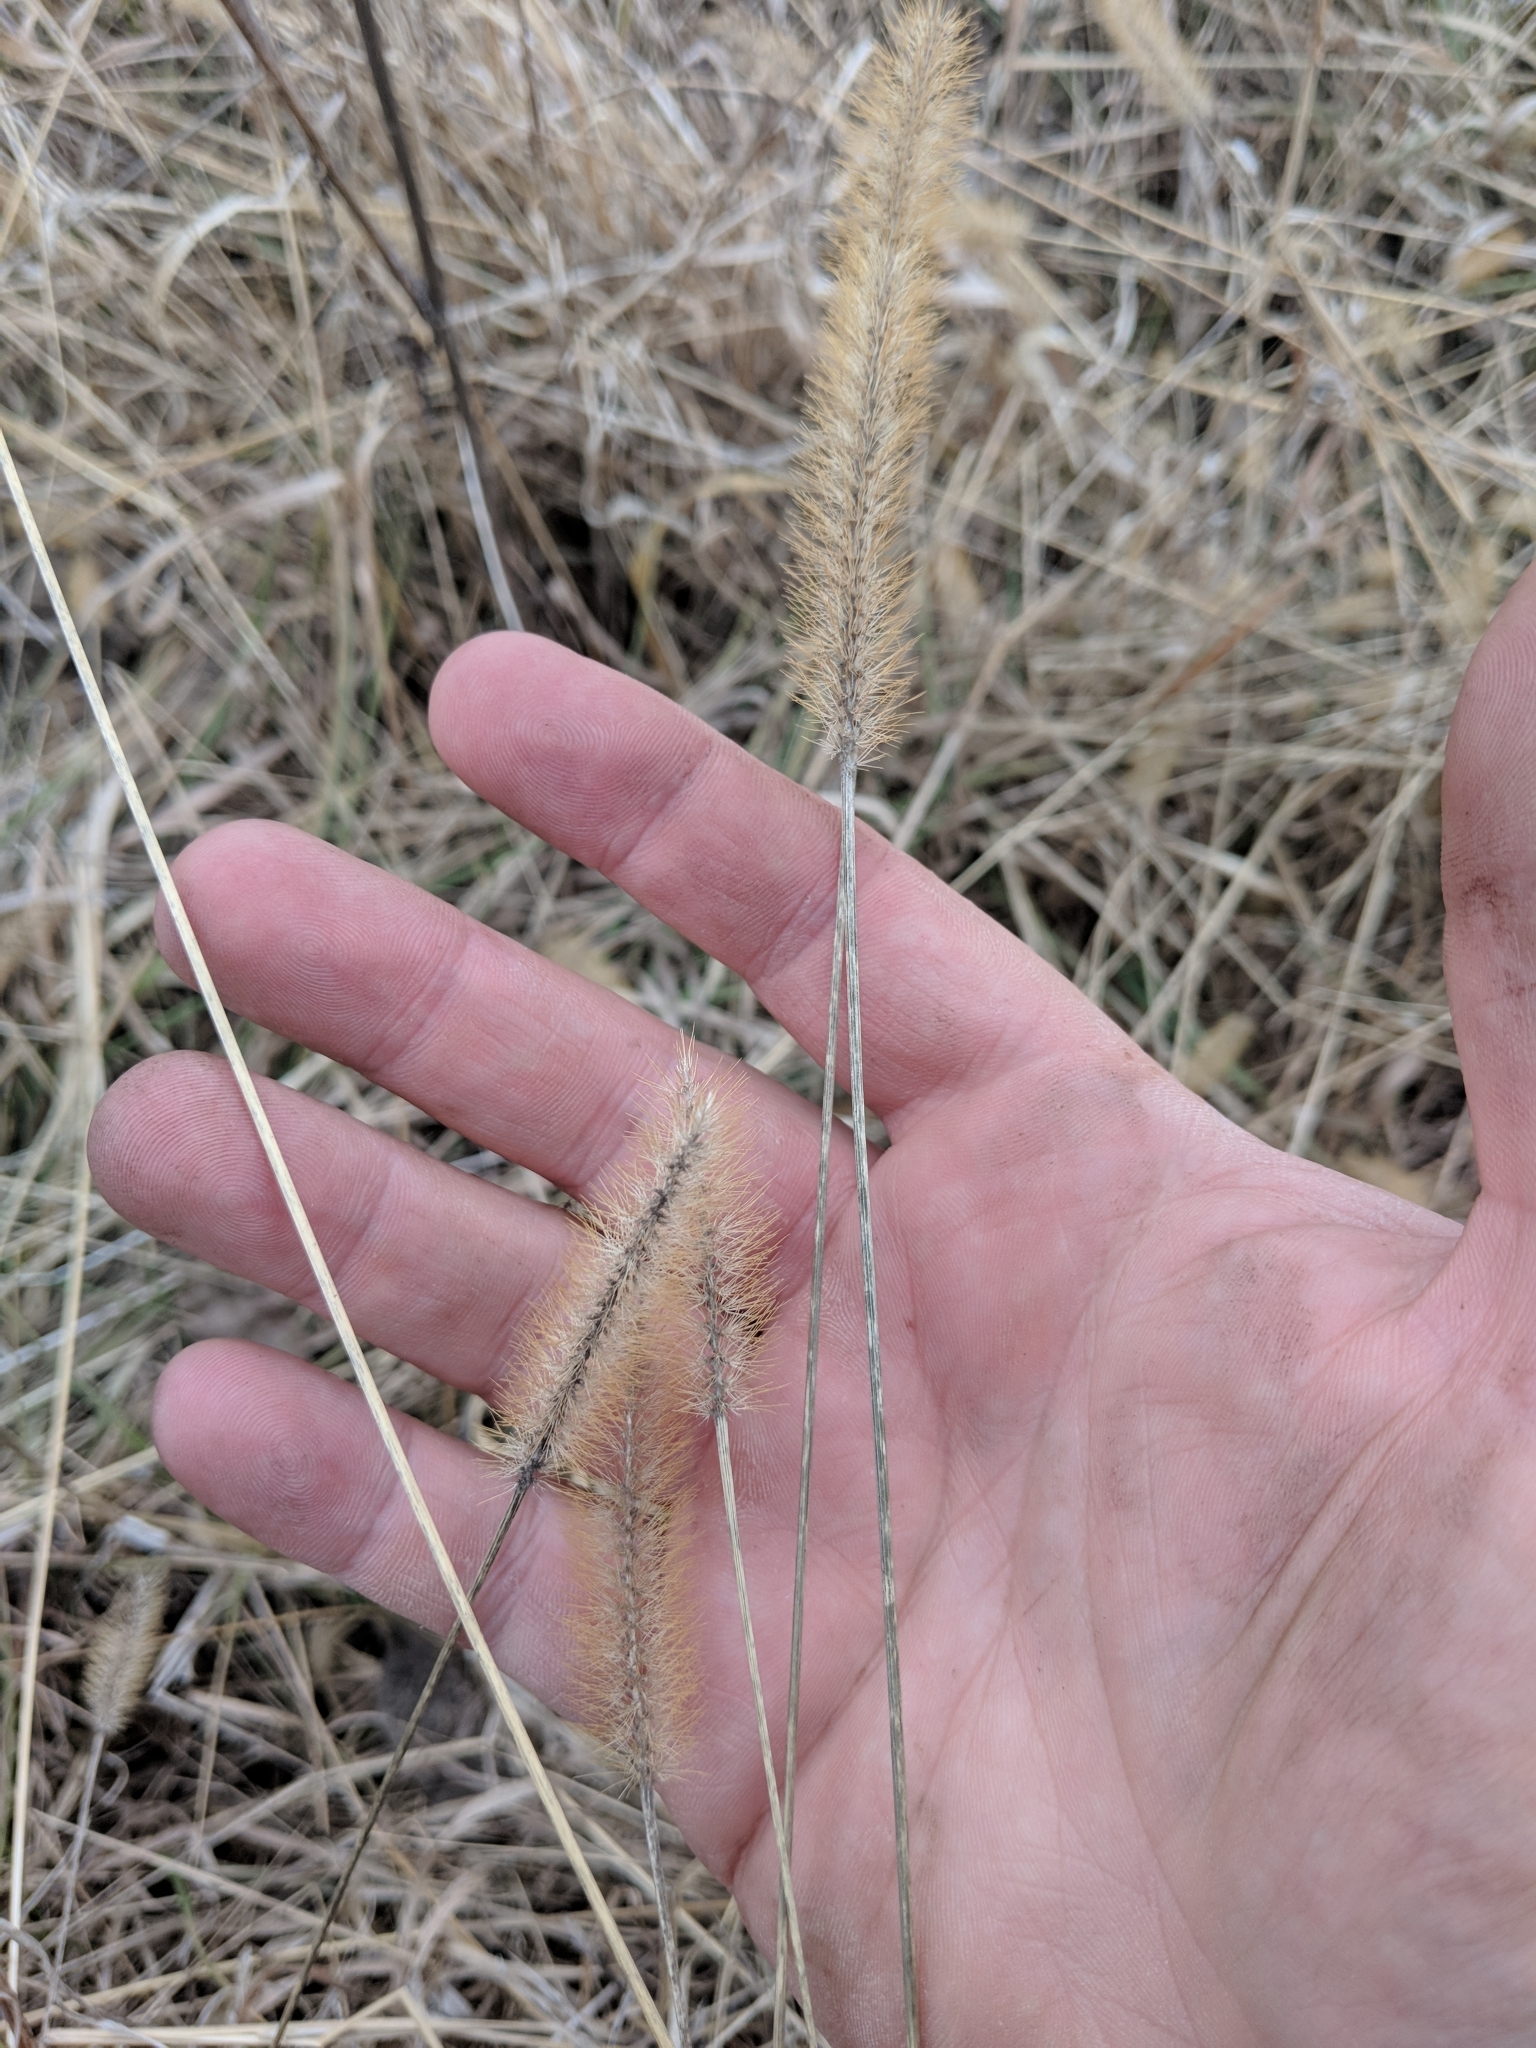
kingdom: Plantae
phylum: Tracheophyta
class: Liliopsida
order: Poales
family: Poaceae
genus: Setaria
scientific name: Setaria pumila
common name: Yellow bristle-grass
